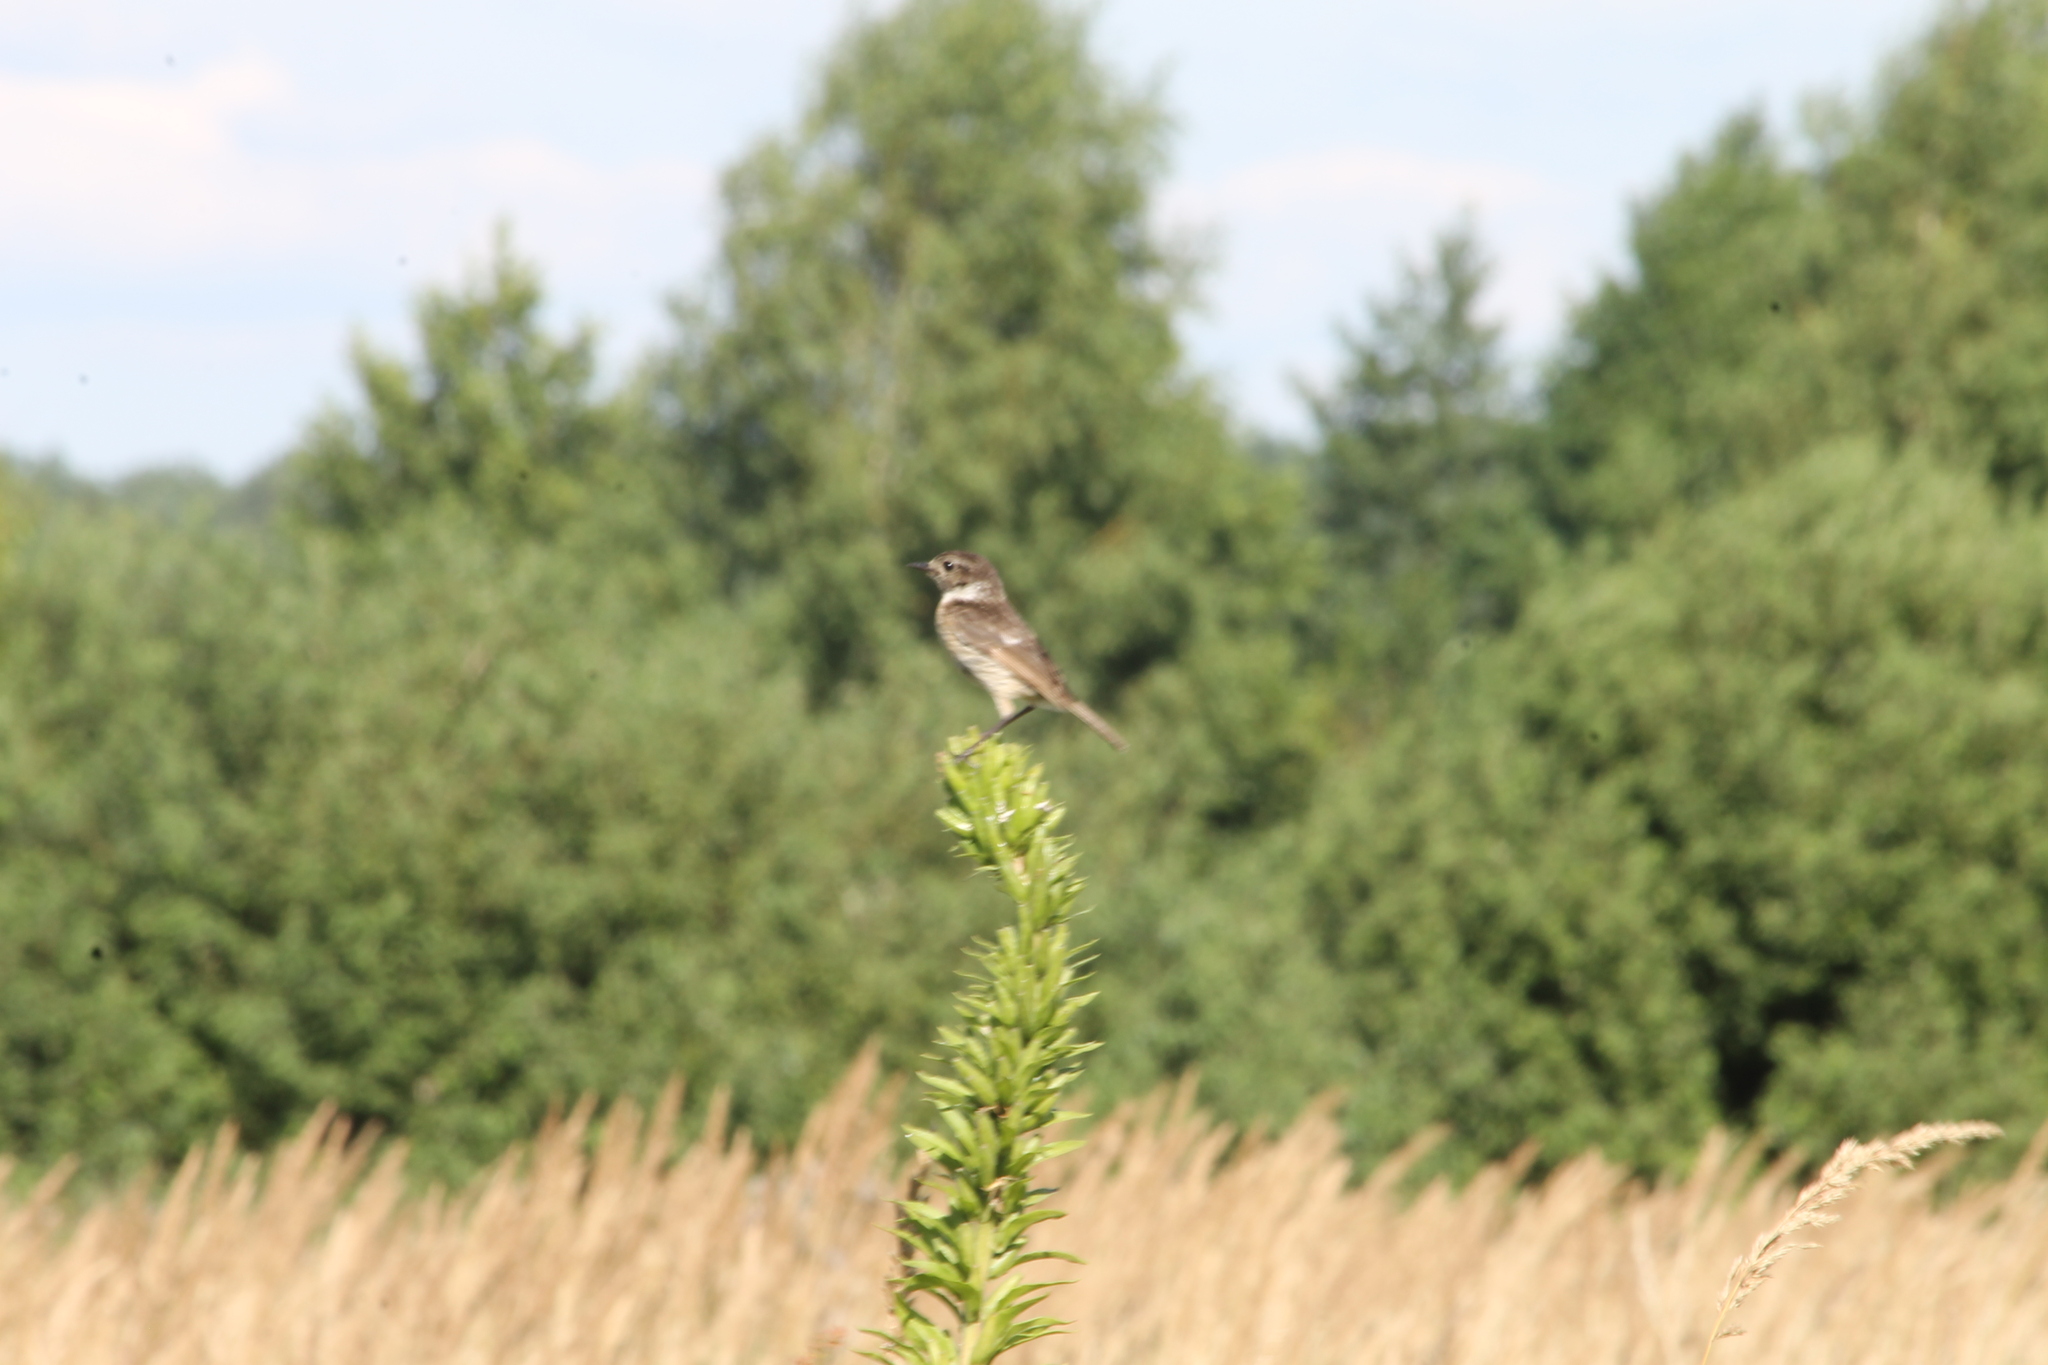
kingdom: Animalia
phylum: Chordata
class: Aves
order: Passeriformes
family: Muscicapidae
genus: Saxicola
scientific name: Saxicola rubicola
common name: European stonechat
